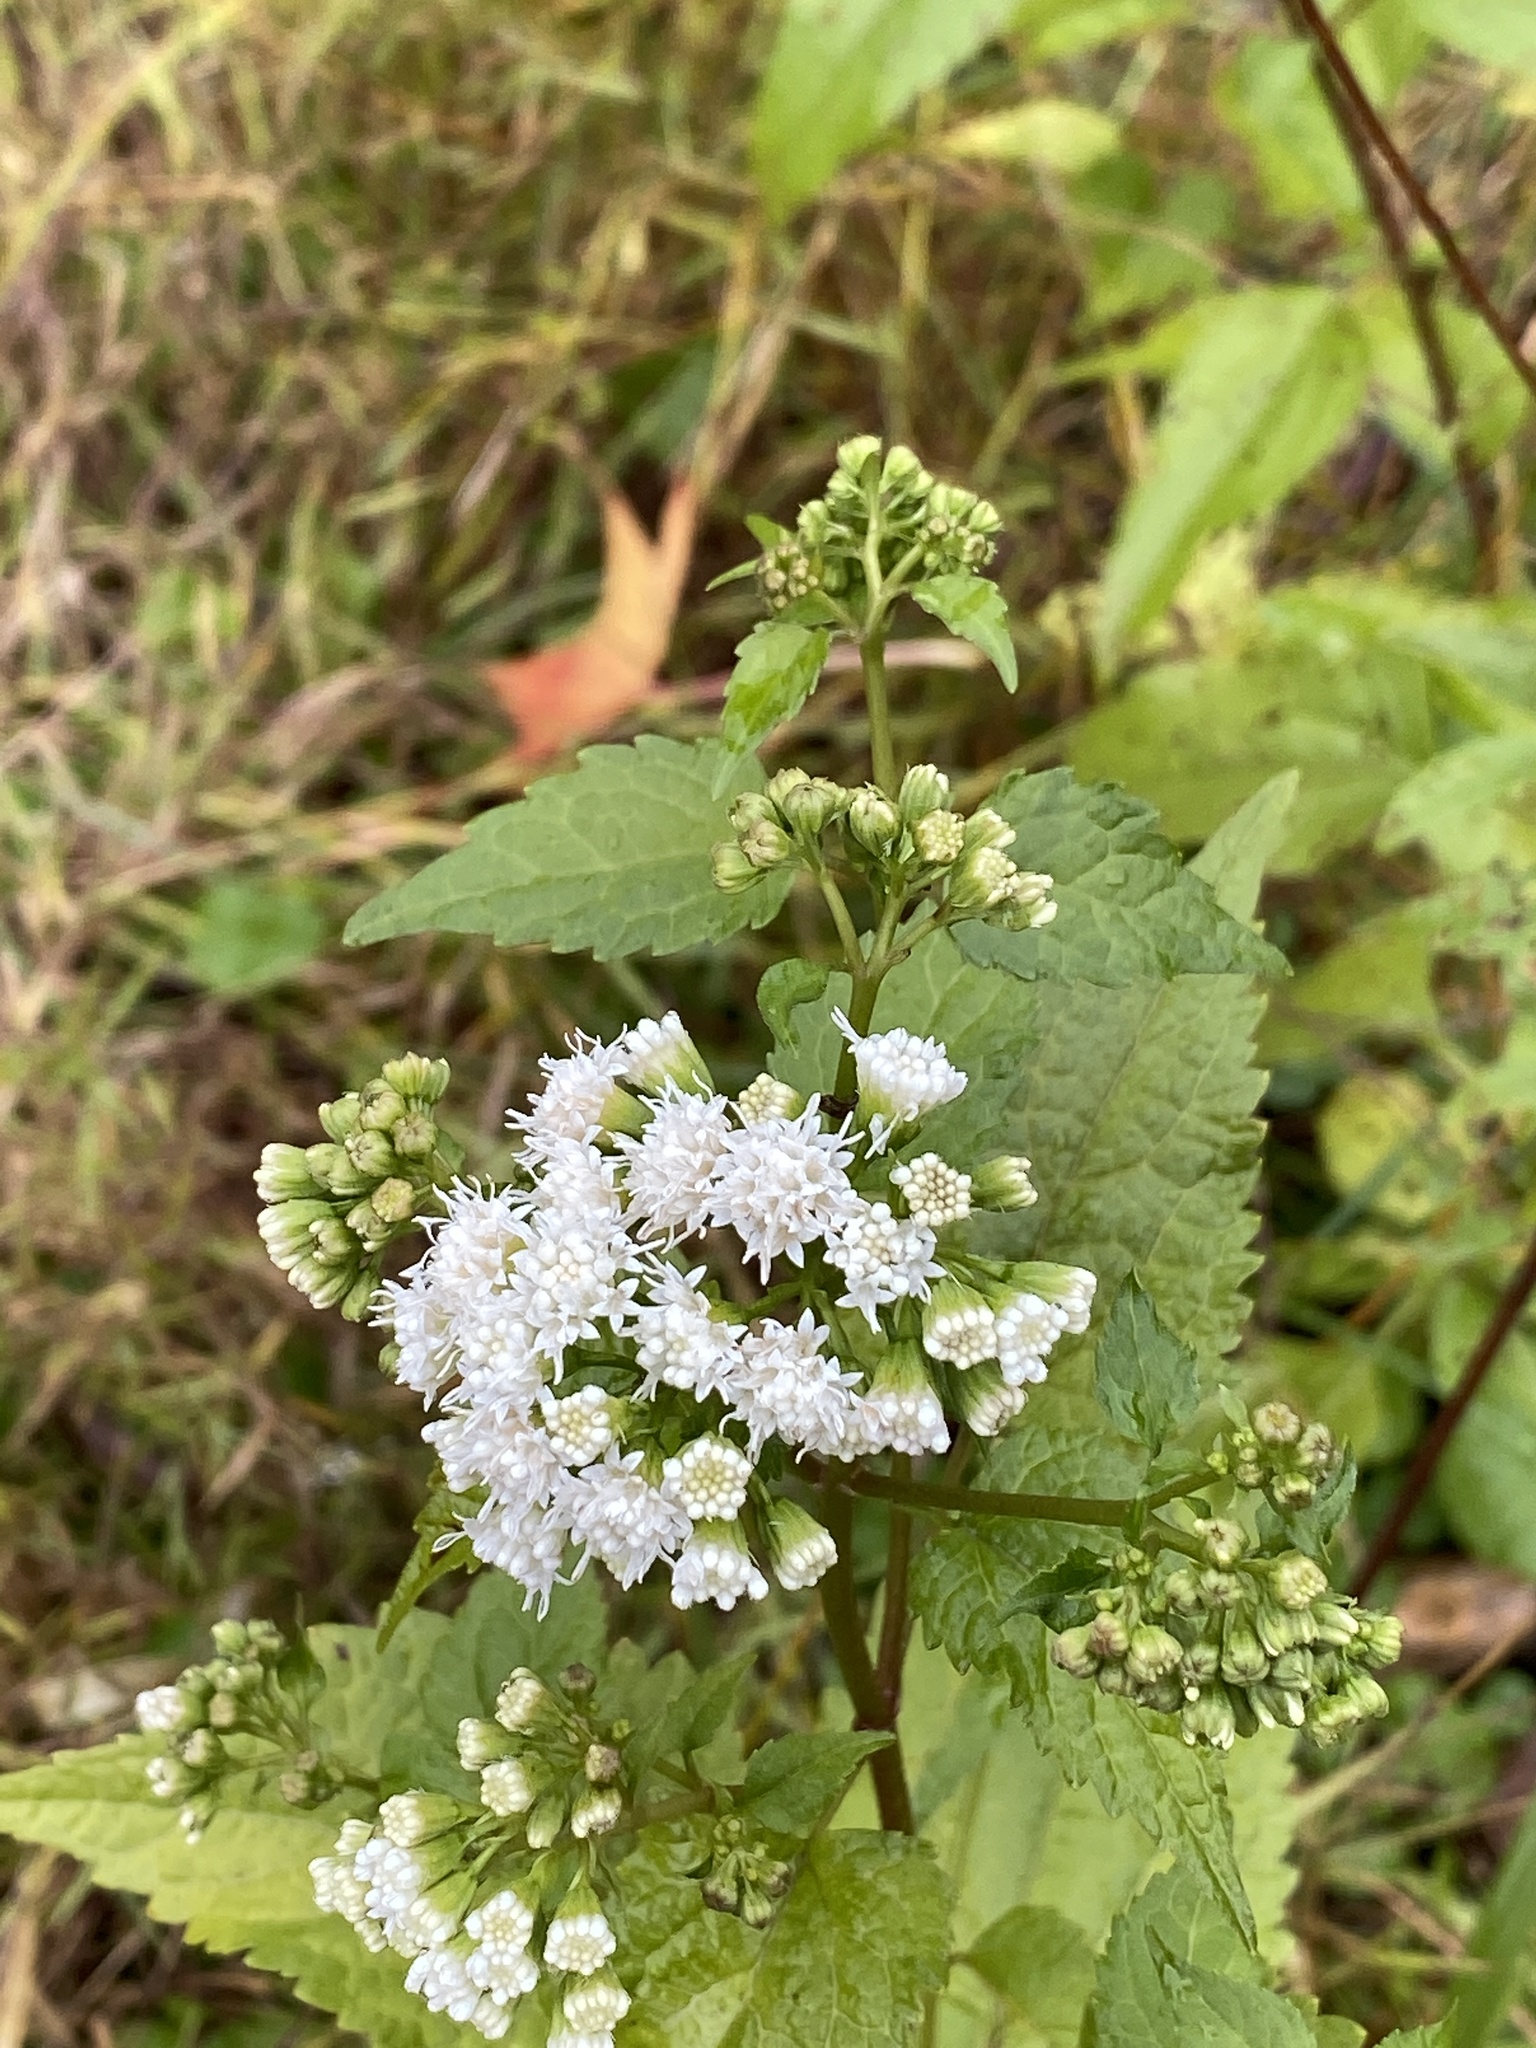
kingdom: Plantae
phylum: Tracheophyta
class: Magnoliopsida
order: Asterales
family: Asteraceae
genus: Ageratina
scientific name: Ageratina altissima
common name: White snakeroot
